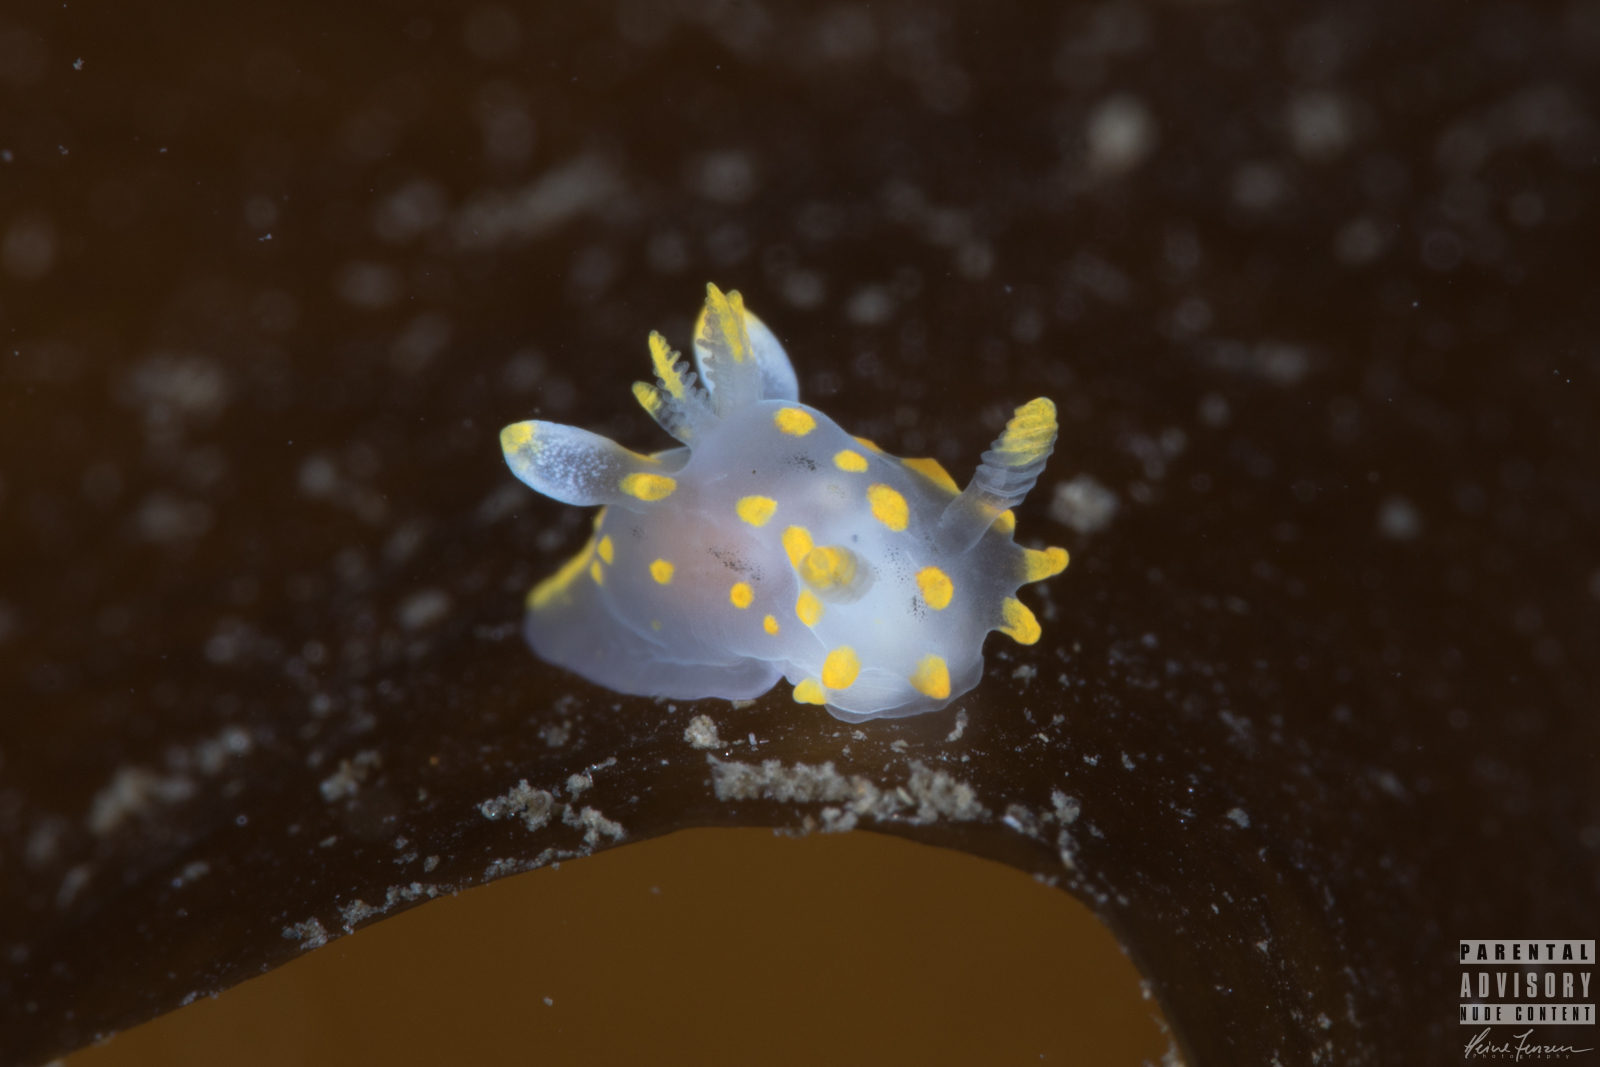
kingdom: Animalia
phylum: Mollusca
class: Gastropoda
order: Nudibranchia
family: Polyceridae
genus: Polycera
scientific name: Polycera quadrilineata
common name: Four-striped polycera
